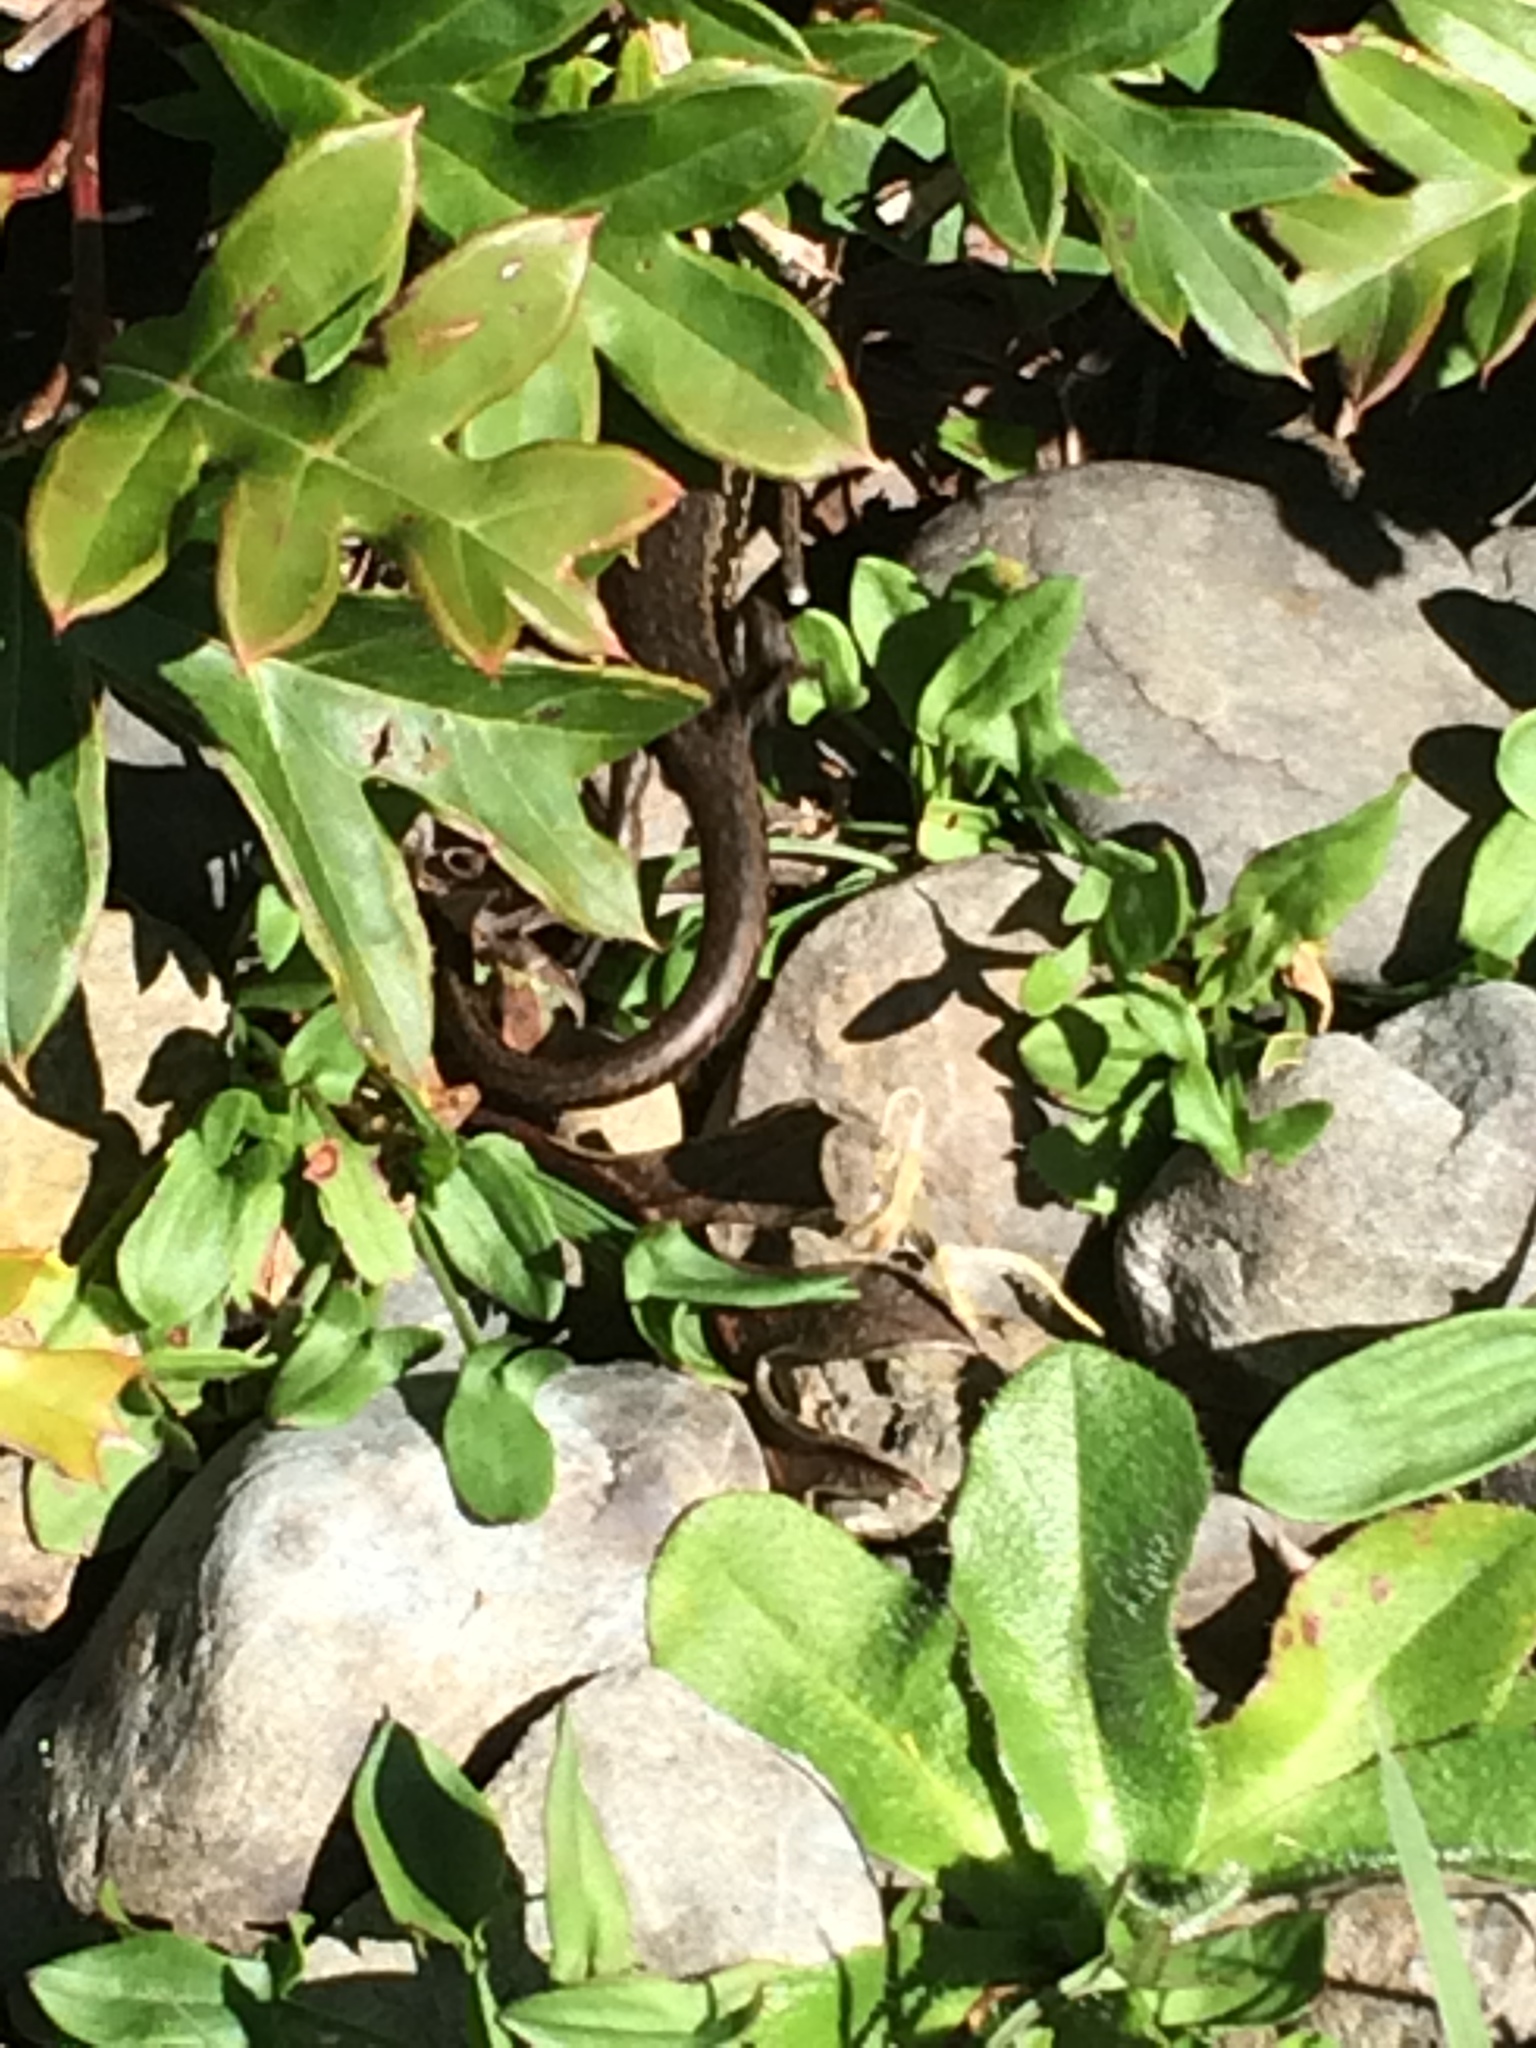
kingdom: Animalia
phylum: Chordata
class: Squamata
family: Scincidae
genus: Oligosoma
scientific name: Oligosoma polychroma
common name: Common new zealand skink
